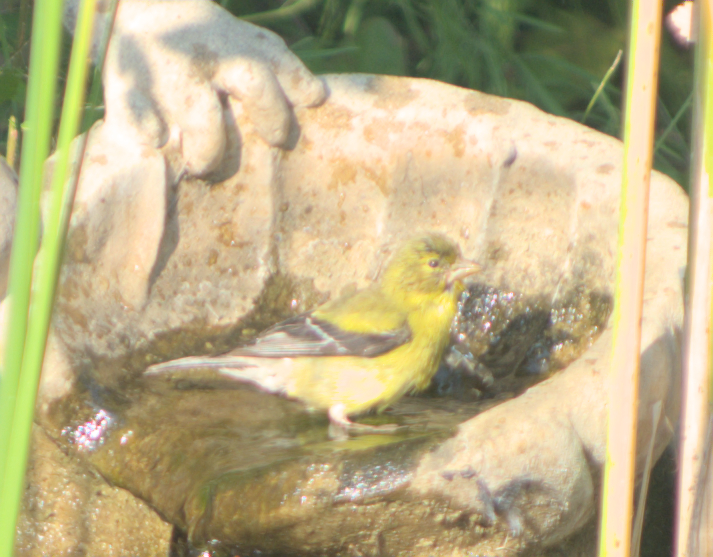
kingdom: Animalia
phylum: Chordata
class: Aves
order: Passeriformes
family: Fringillidae
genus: Spinus
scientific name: Spinus tristis
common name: American goldfinch
